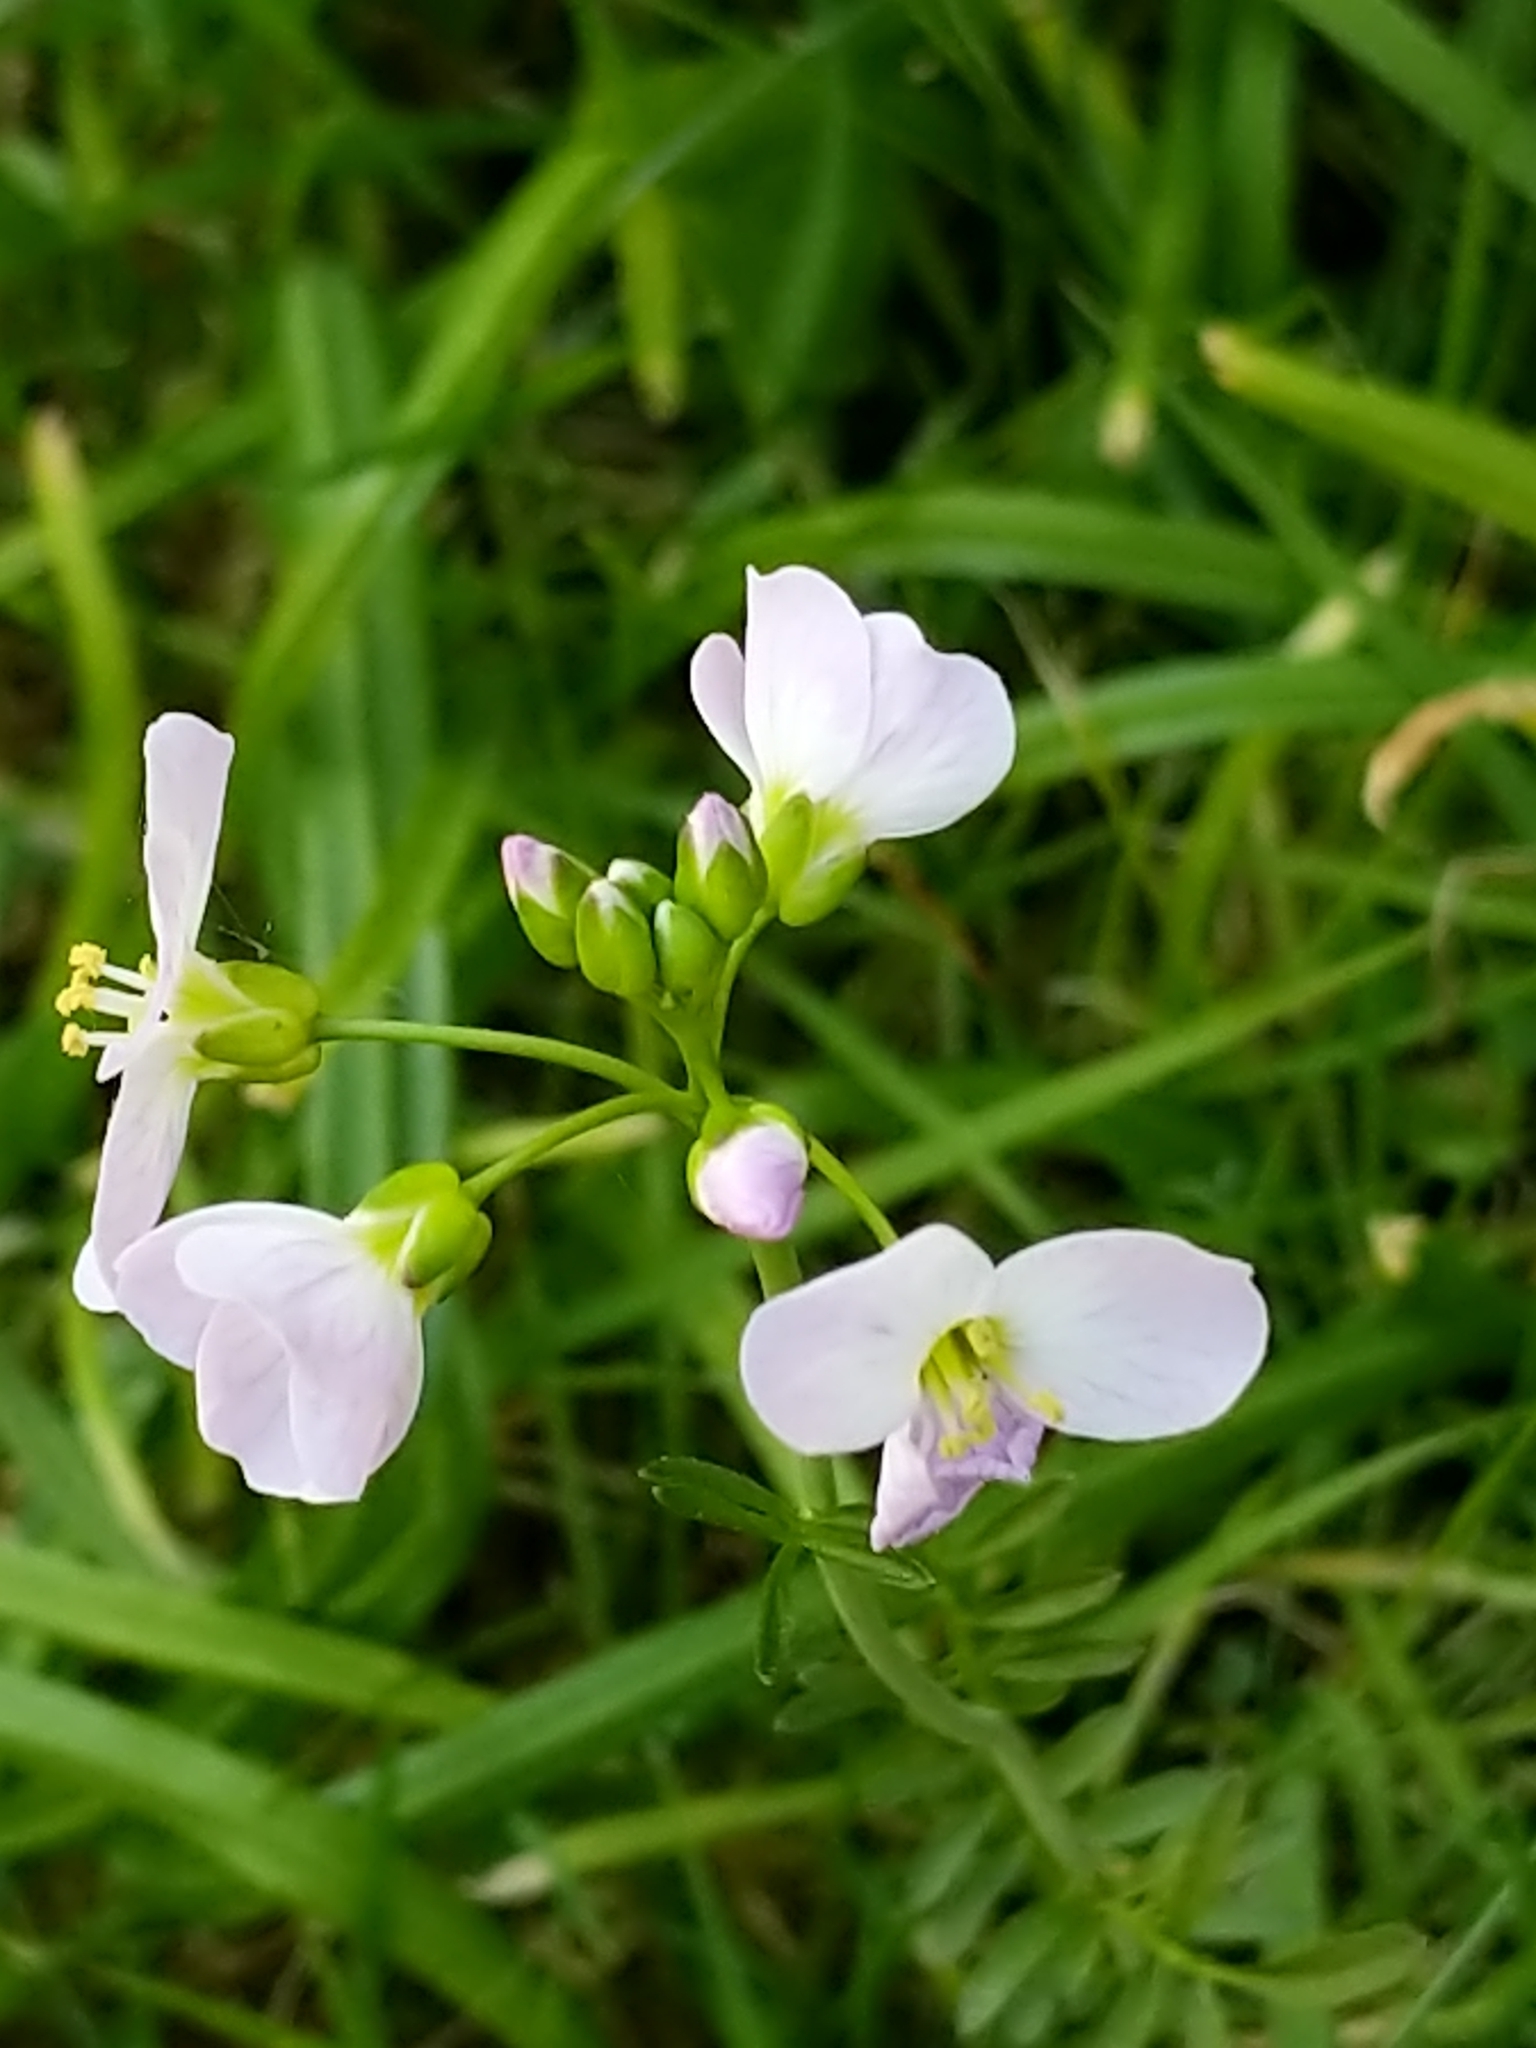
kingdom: Plantae
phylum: Tracheophyta
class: Magnoliopsida
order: Brassicales
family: Brassicaceae
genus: Cardamine
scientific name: Cardamine pratensis
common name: Cuckoo flower
